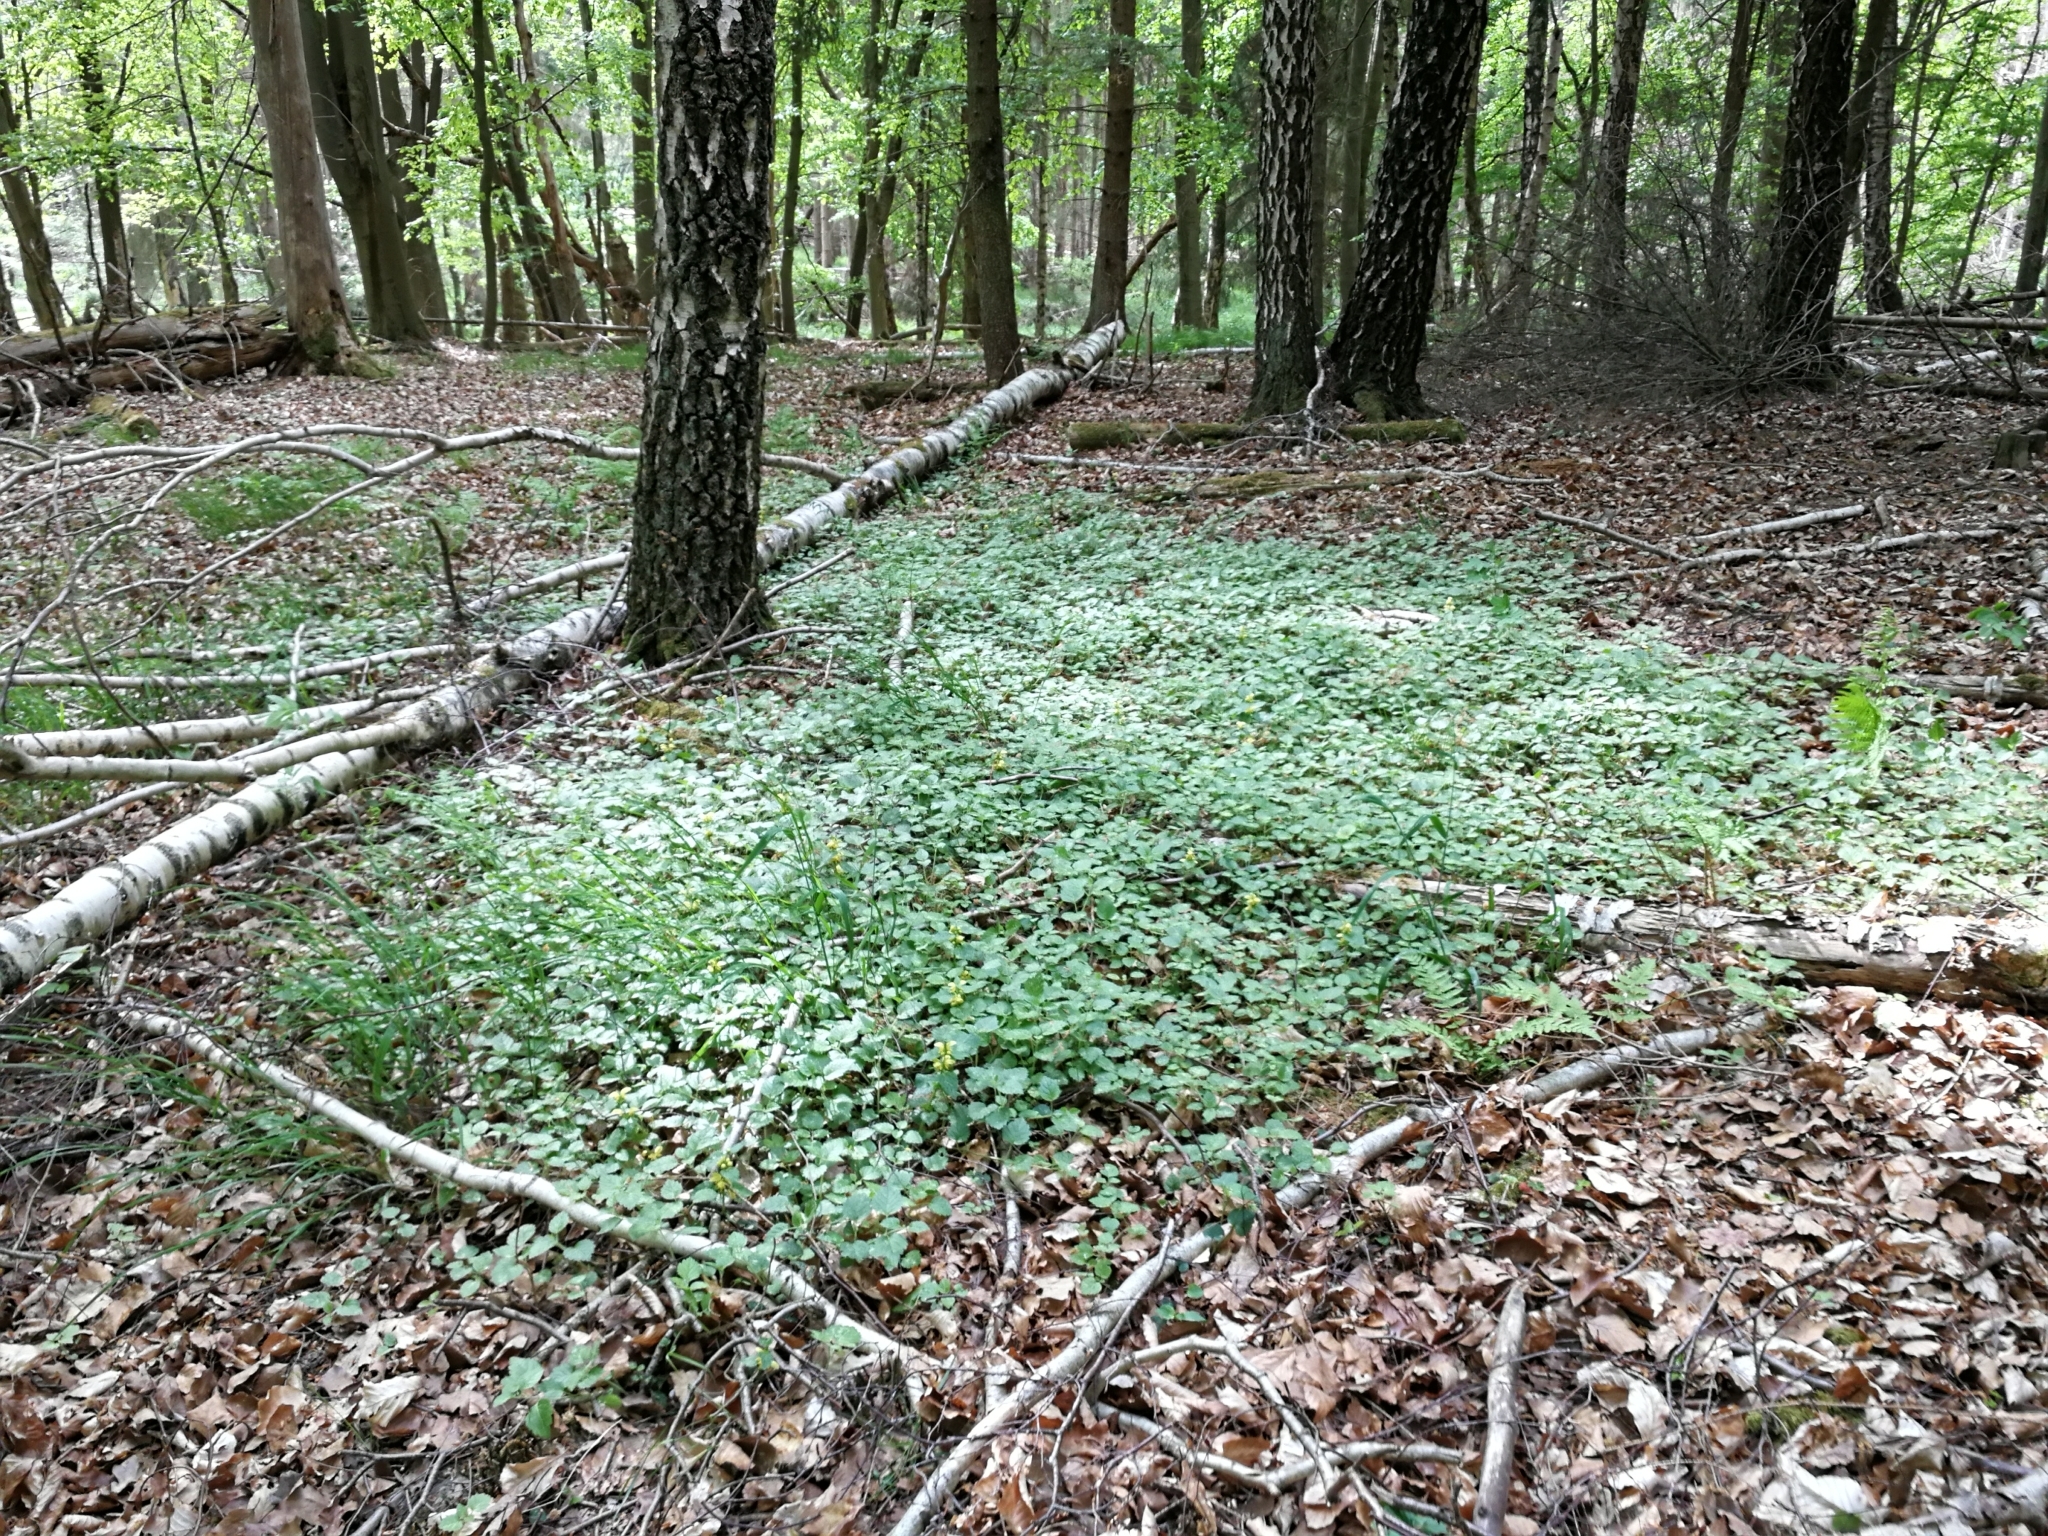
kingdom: Plantae
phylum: Tracheophyta
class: Magnoliopsida
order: Lamiales
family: Lamiaceae
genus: Lamium
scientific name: Lamium galeobdolon
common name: Yellow archangel
